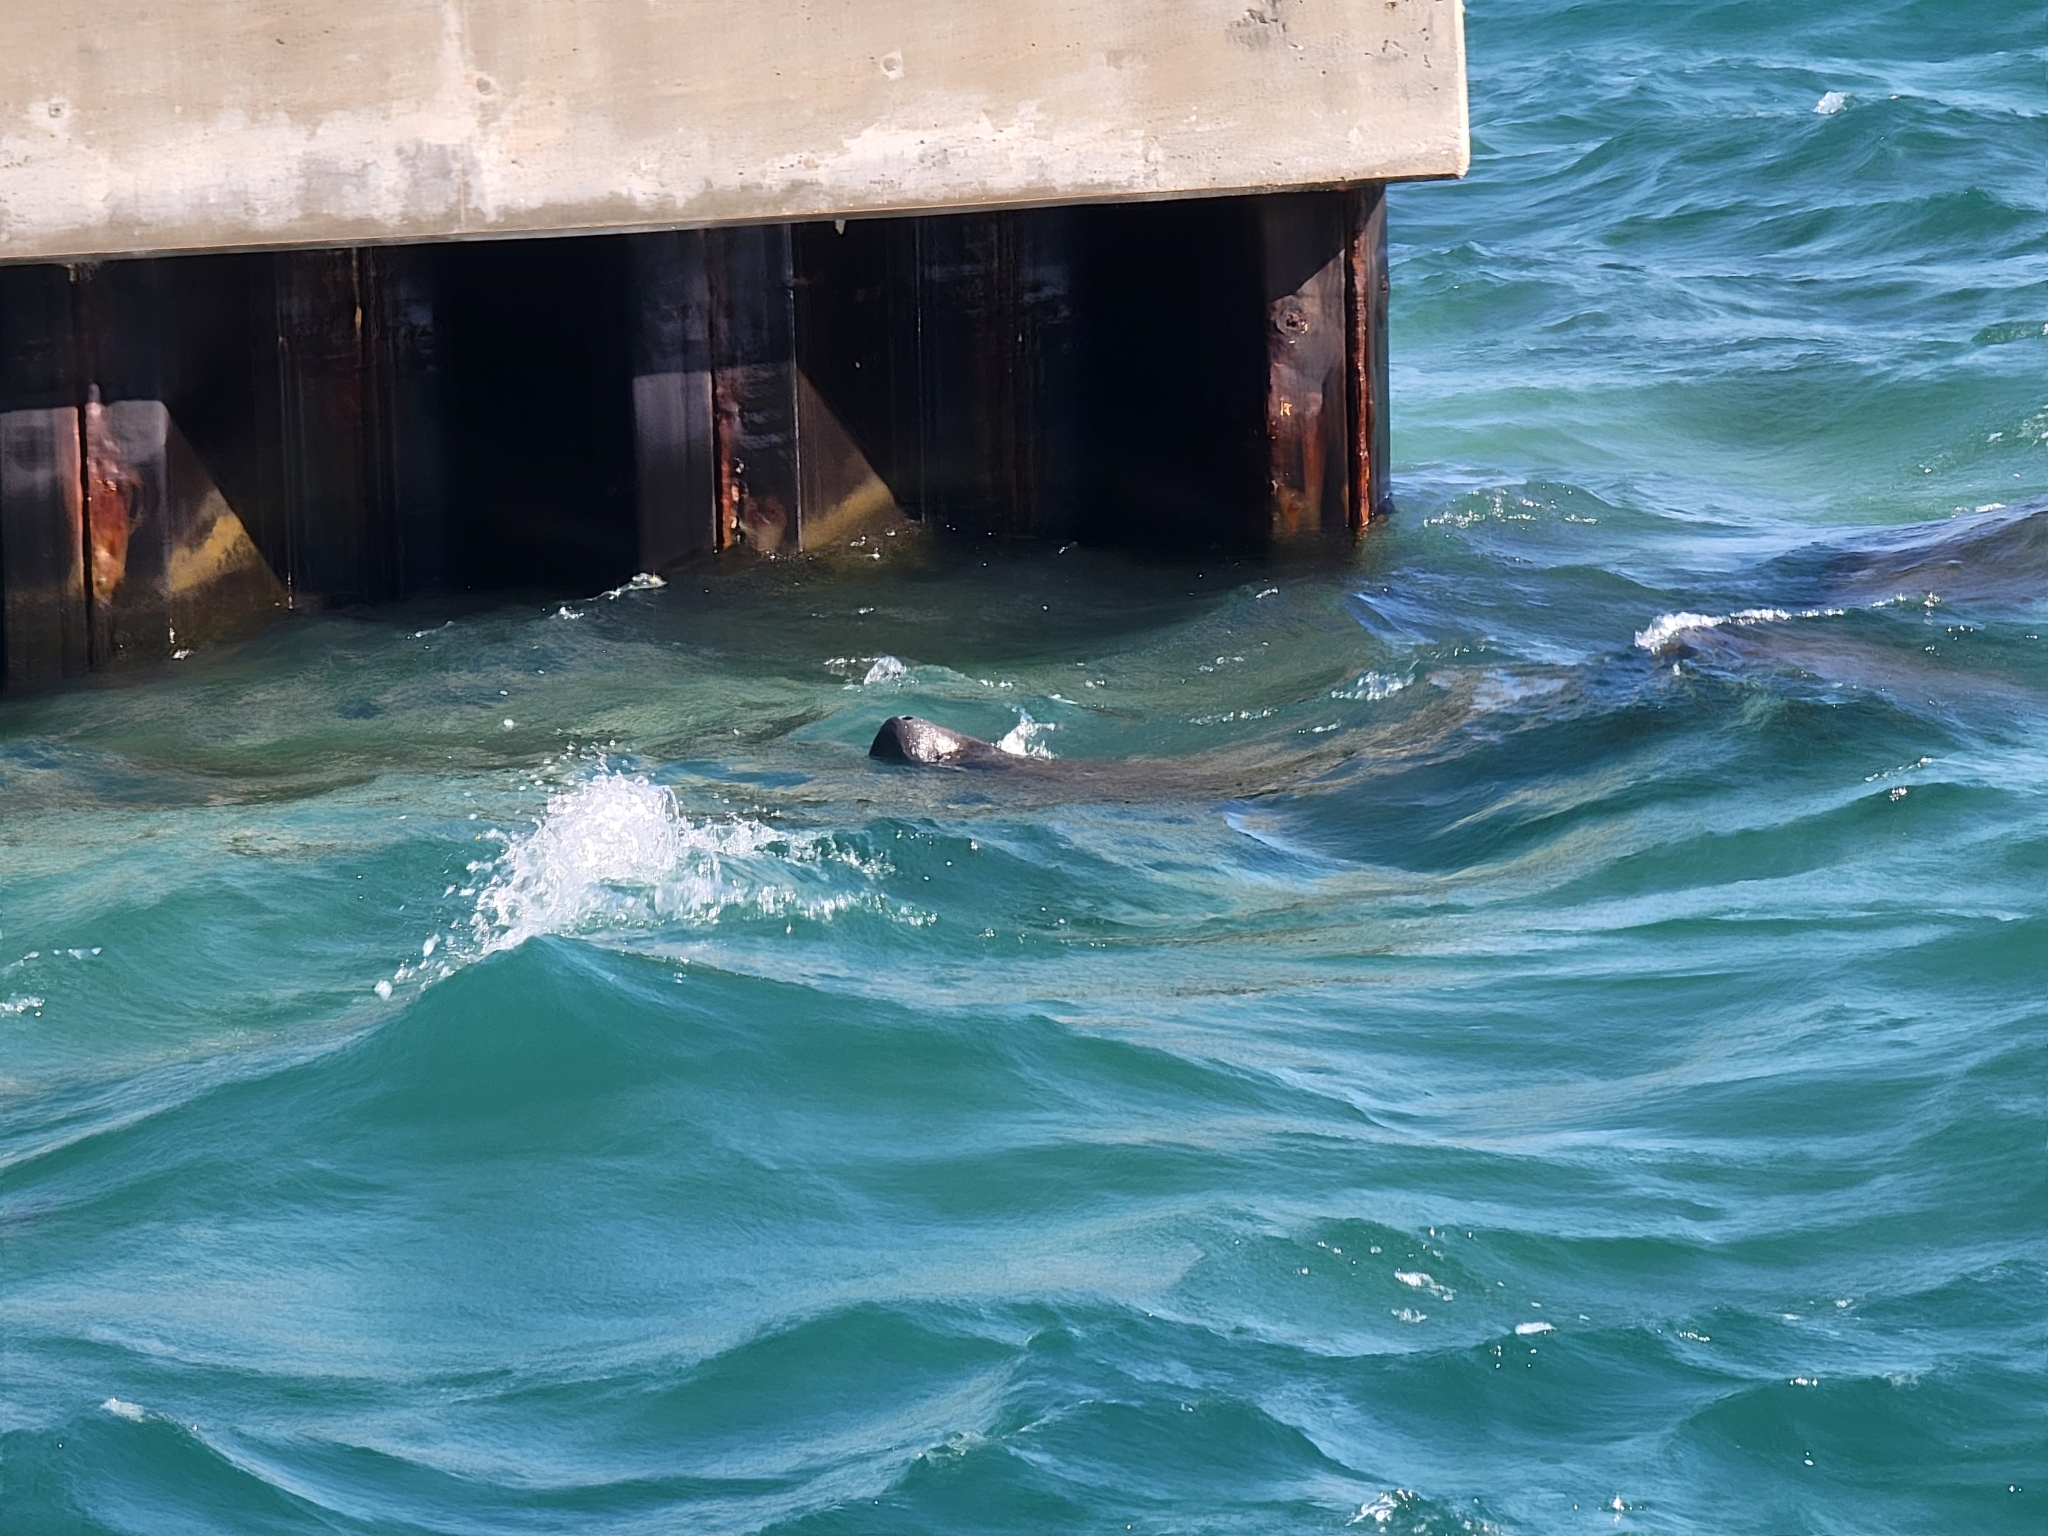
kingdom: Animalia
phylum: Chordata
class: Mammalia
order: Sirenia
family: Trichechidae
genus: Trichechus
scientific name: Trichechus manatus
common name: West indian manatee
